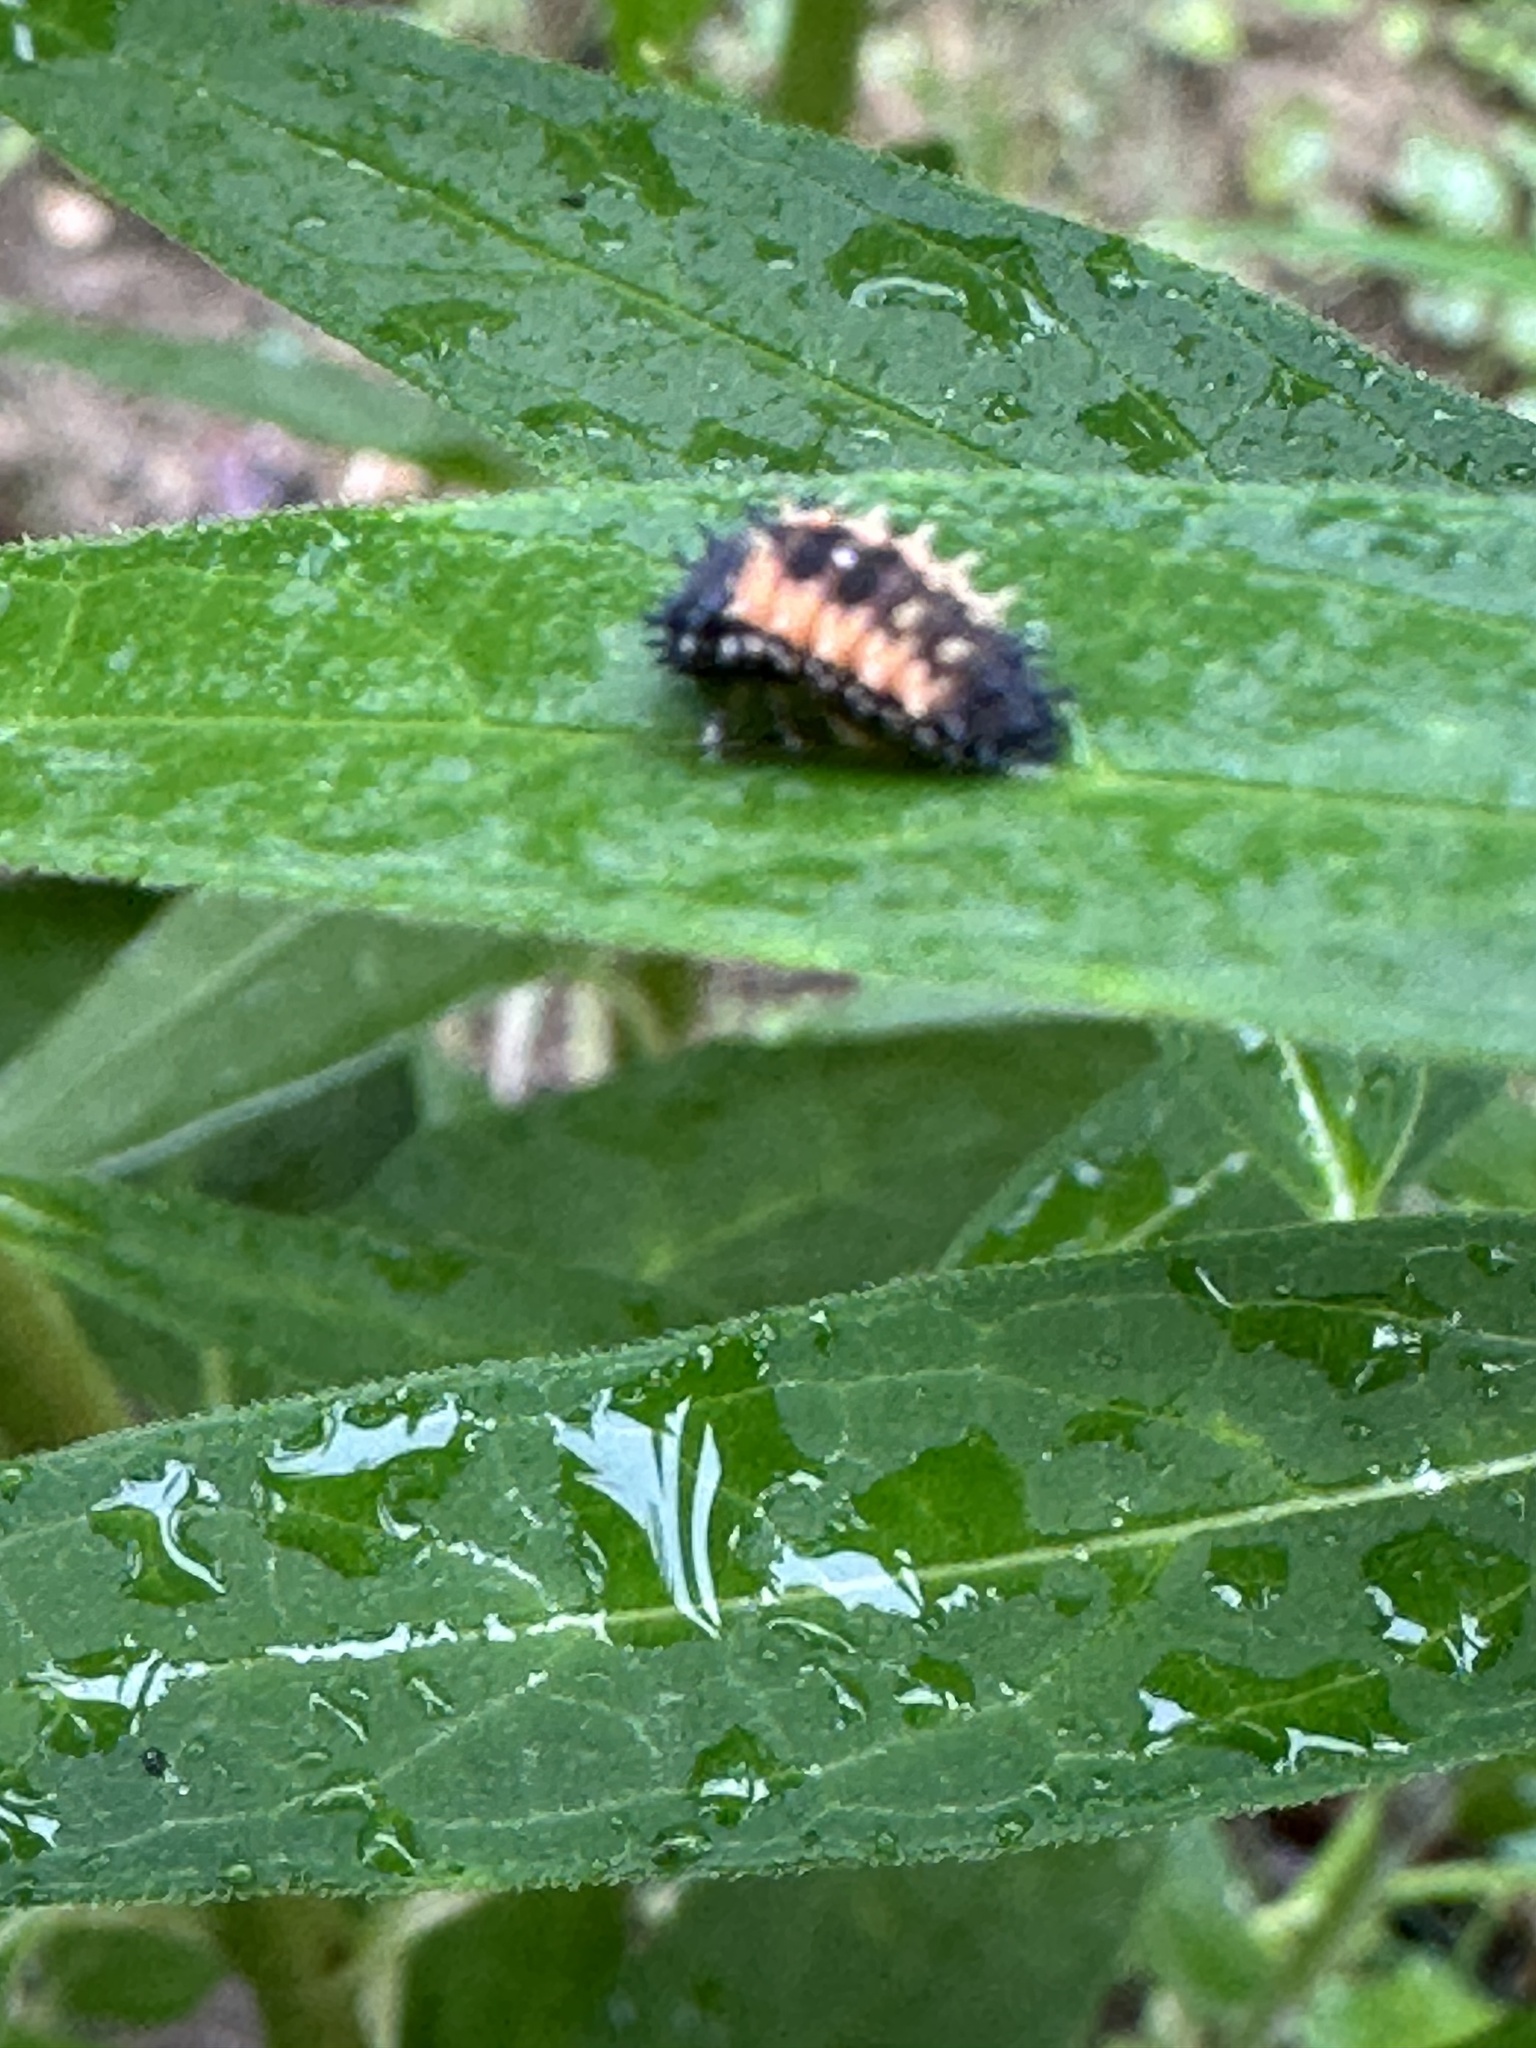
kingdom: Animalia
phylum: Arthropoda
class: Insecta
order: Coleoptera
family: Coccinellidae
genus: Harmonia
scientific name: Harmonia axyridis
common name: Harlequin ladybird
